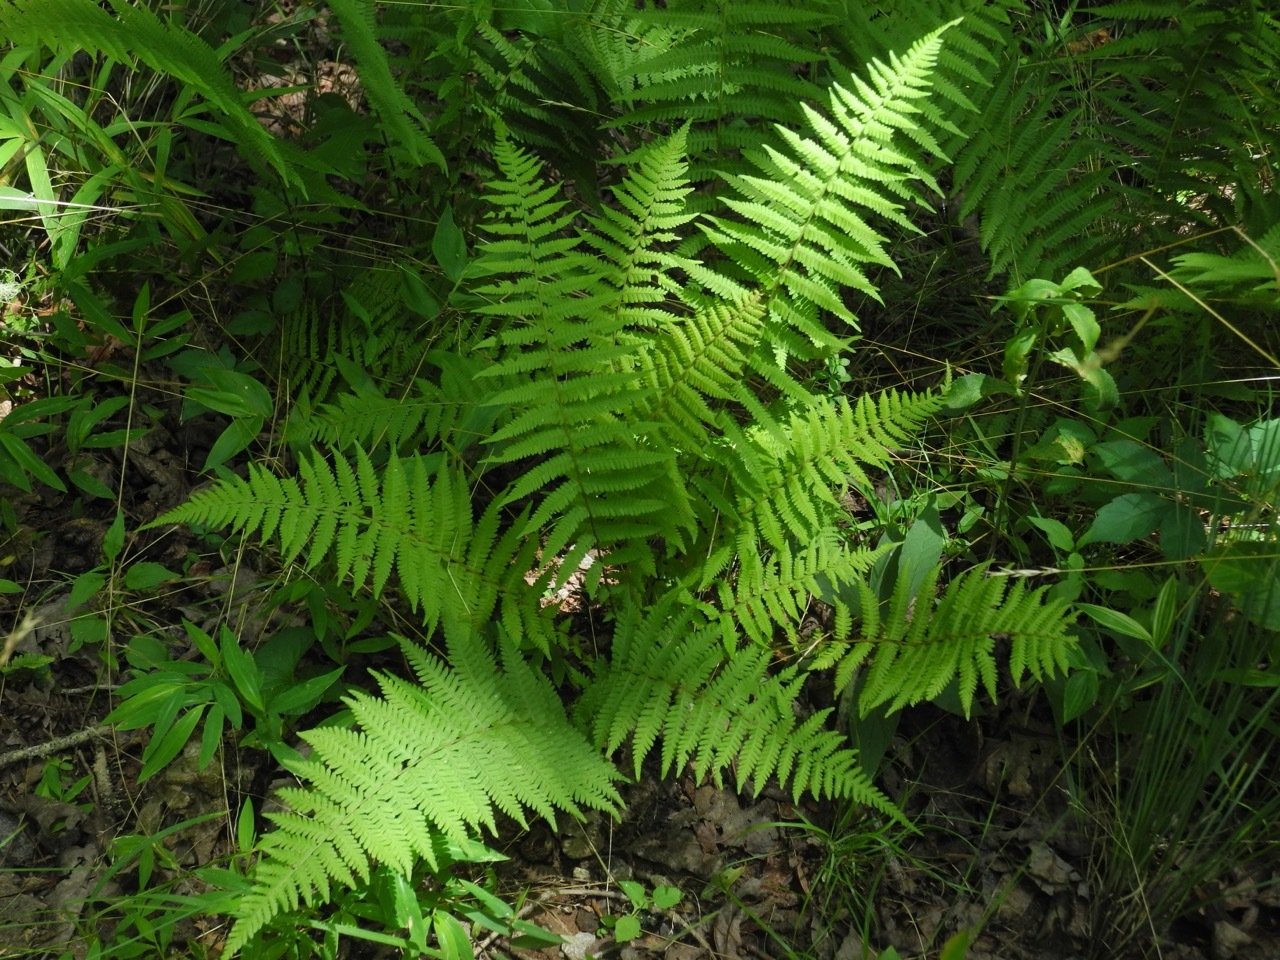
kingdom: Plantae
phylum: Tracheophyta
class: Polypodiopsida
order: Polypodiales
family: Thelypteridaceae
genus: Amauropelta
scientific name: Amauropelta noveboracensis
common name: New york fern
